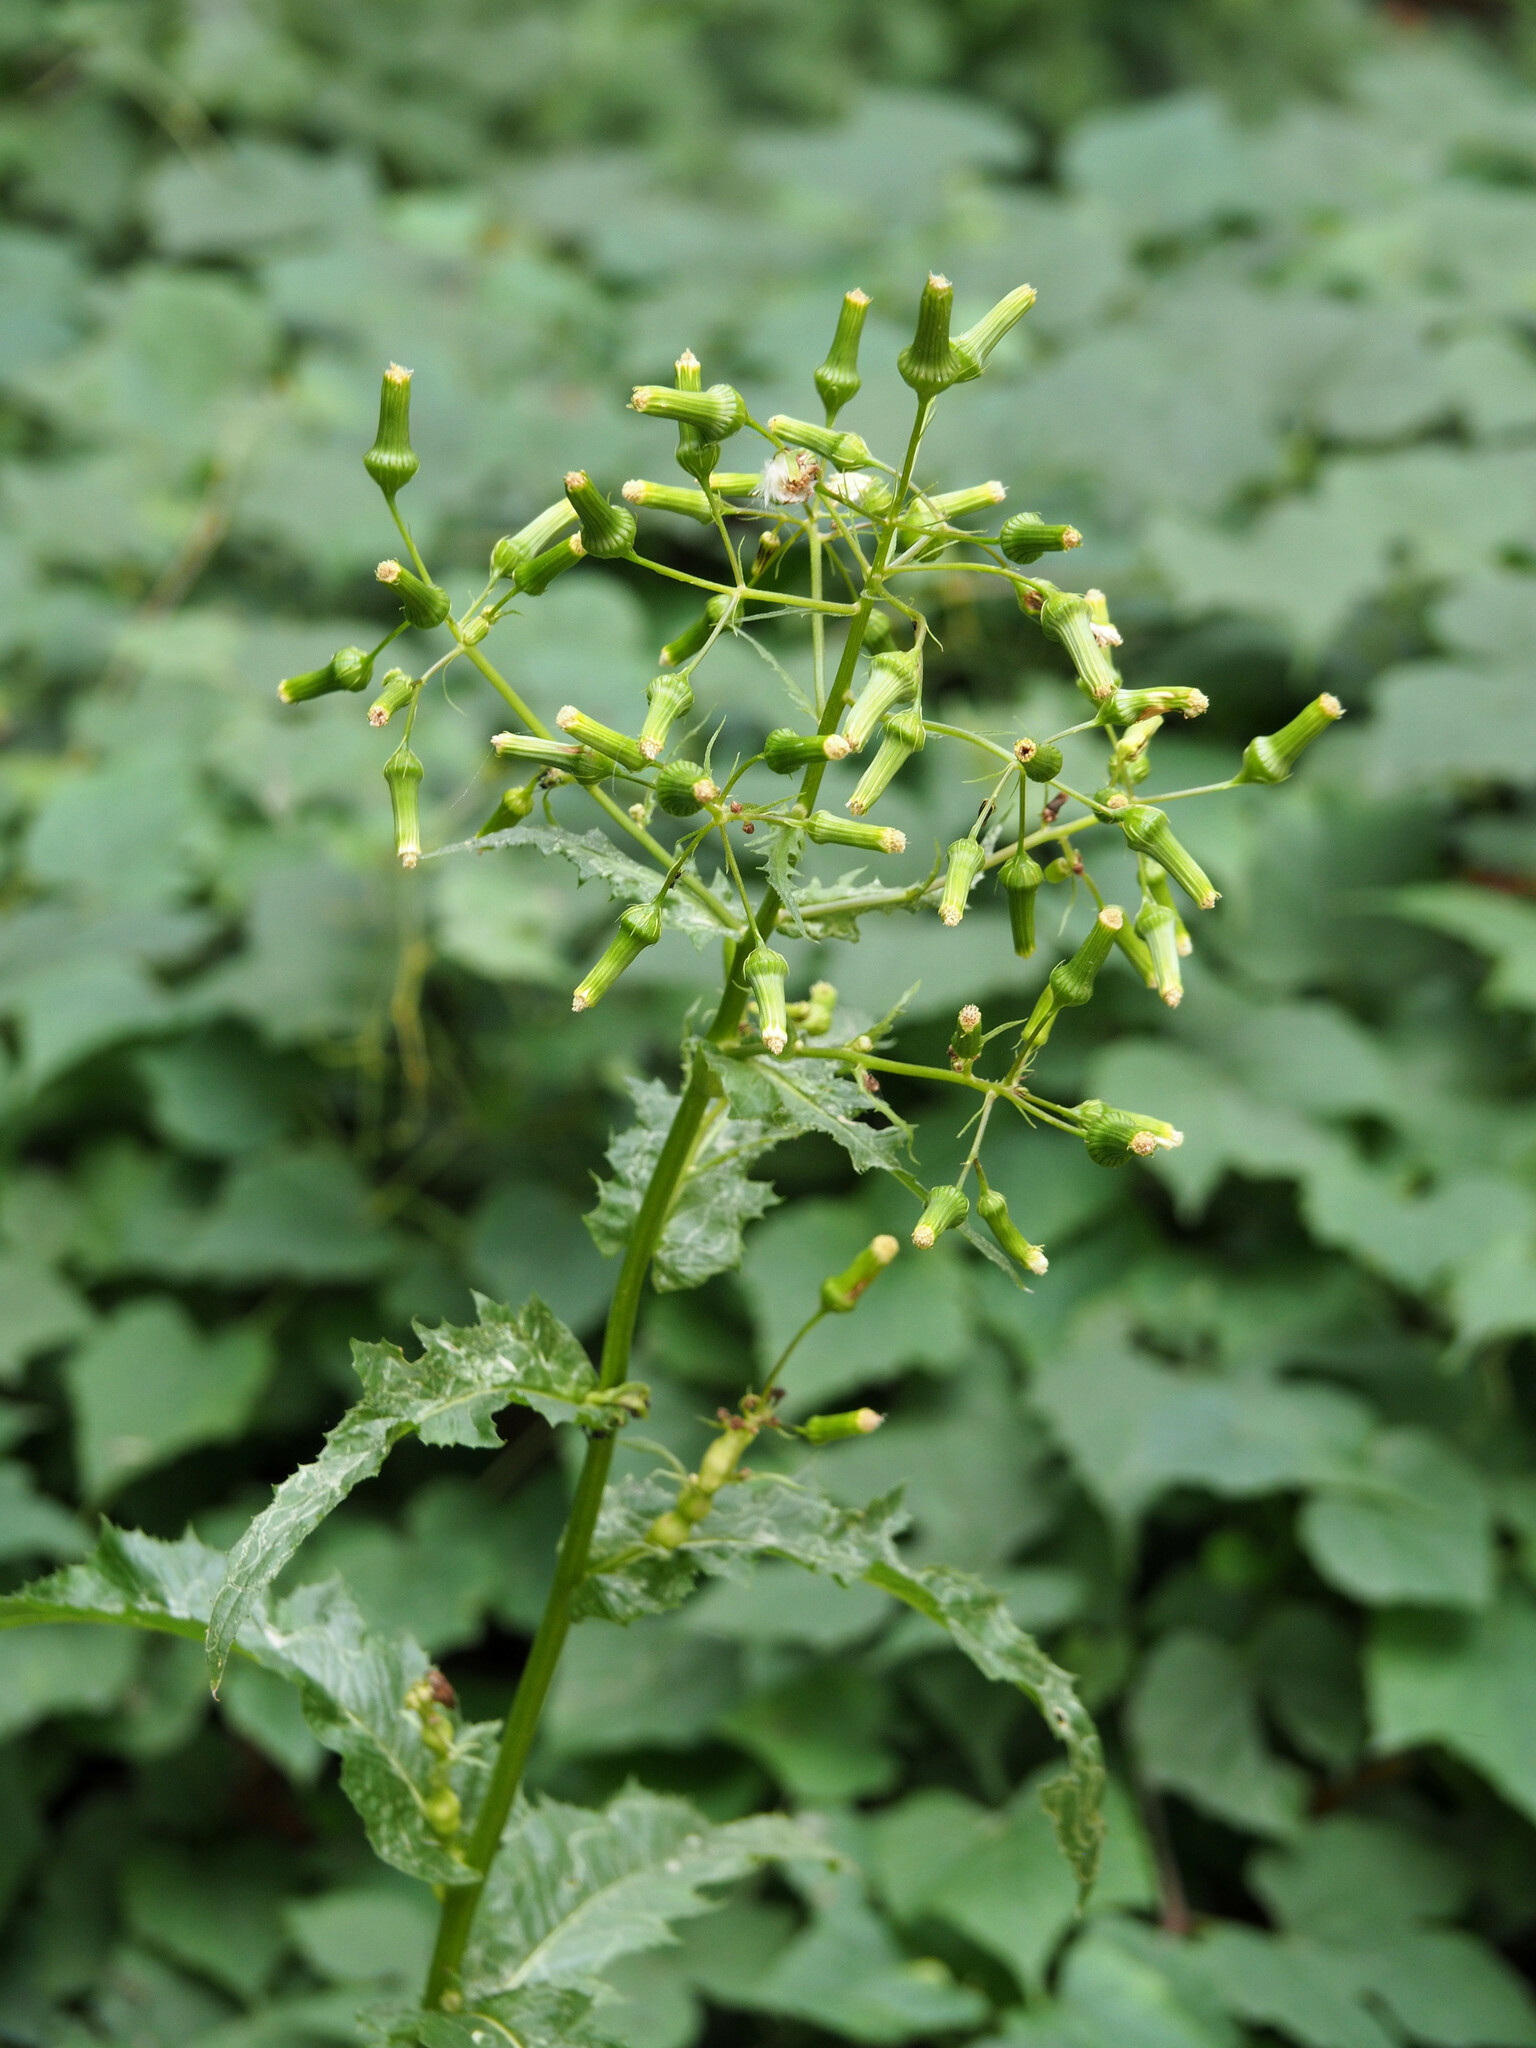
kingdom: Plantae
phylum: Tracheophyta
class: Magnoliopsida
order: Asterales
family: Asteraceae
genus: Erechtites
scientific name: Erechtites hieraciifolius
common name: American burnweed
